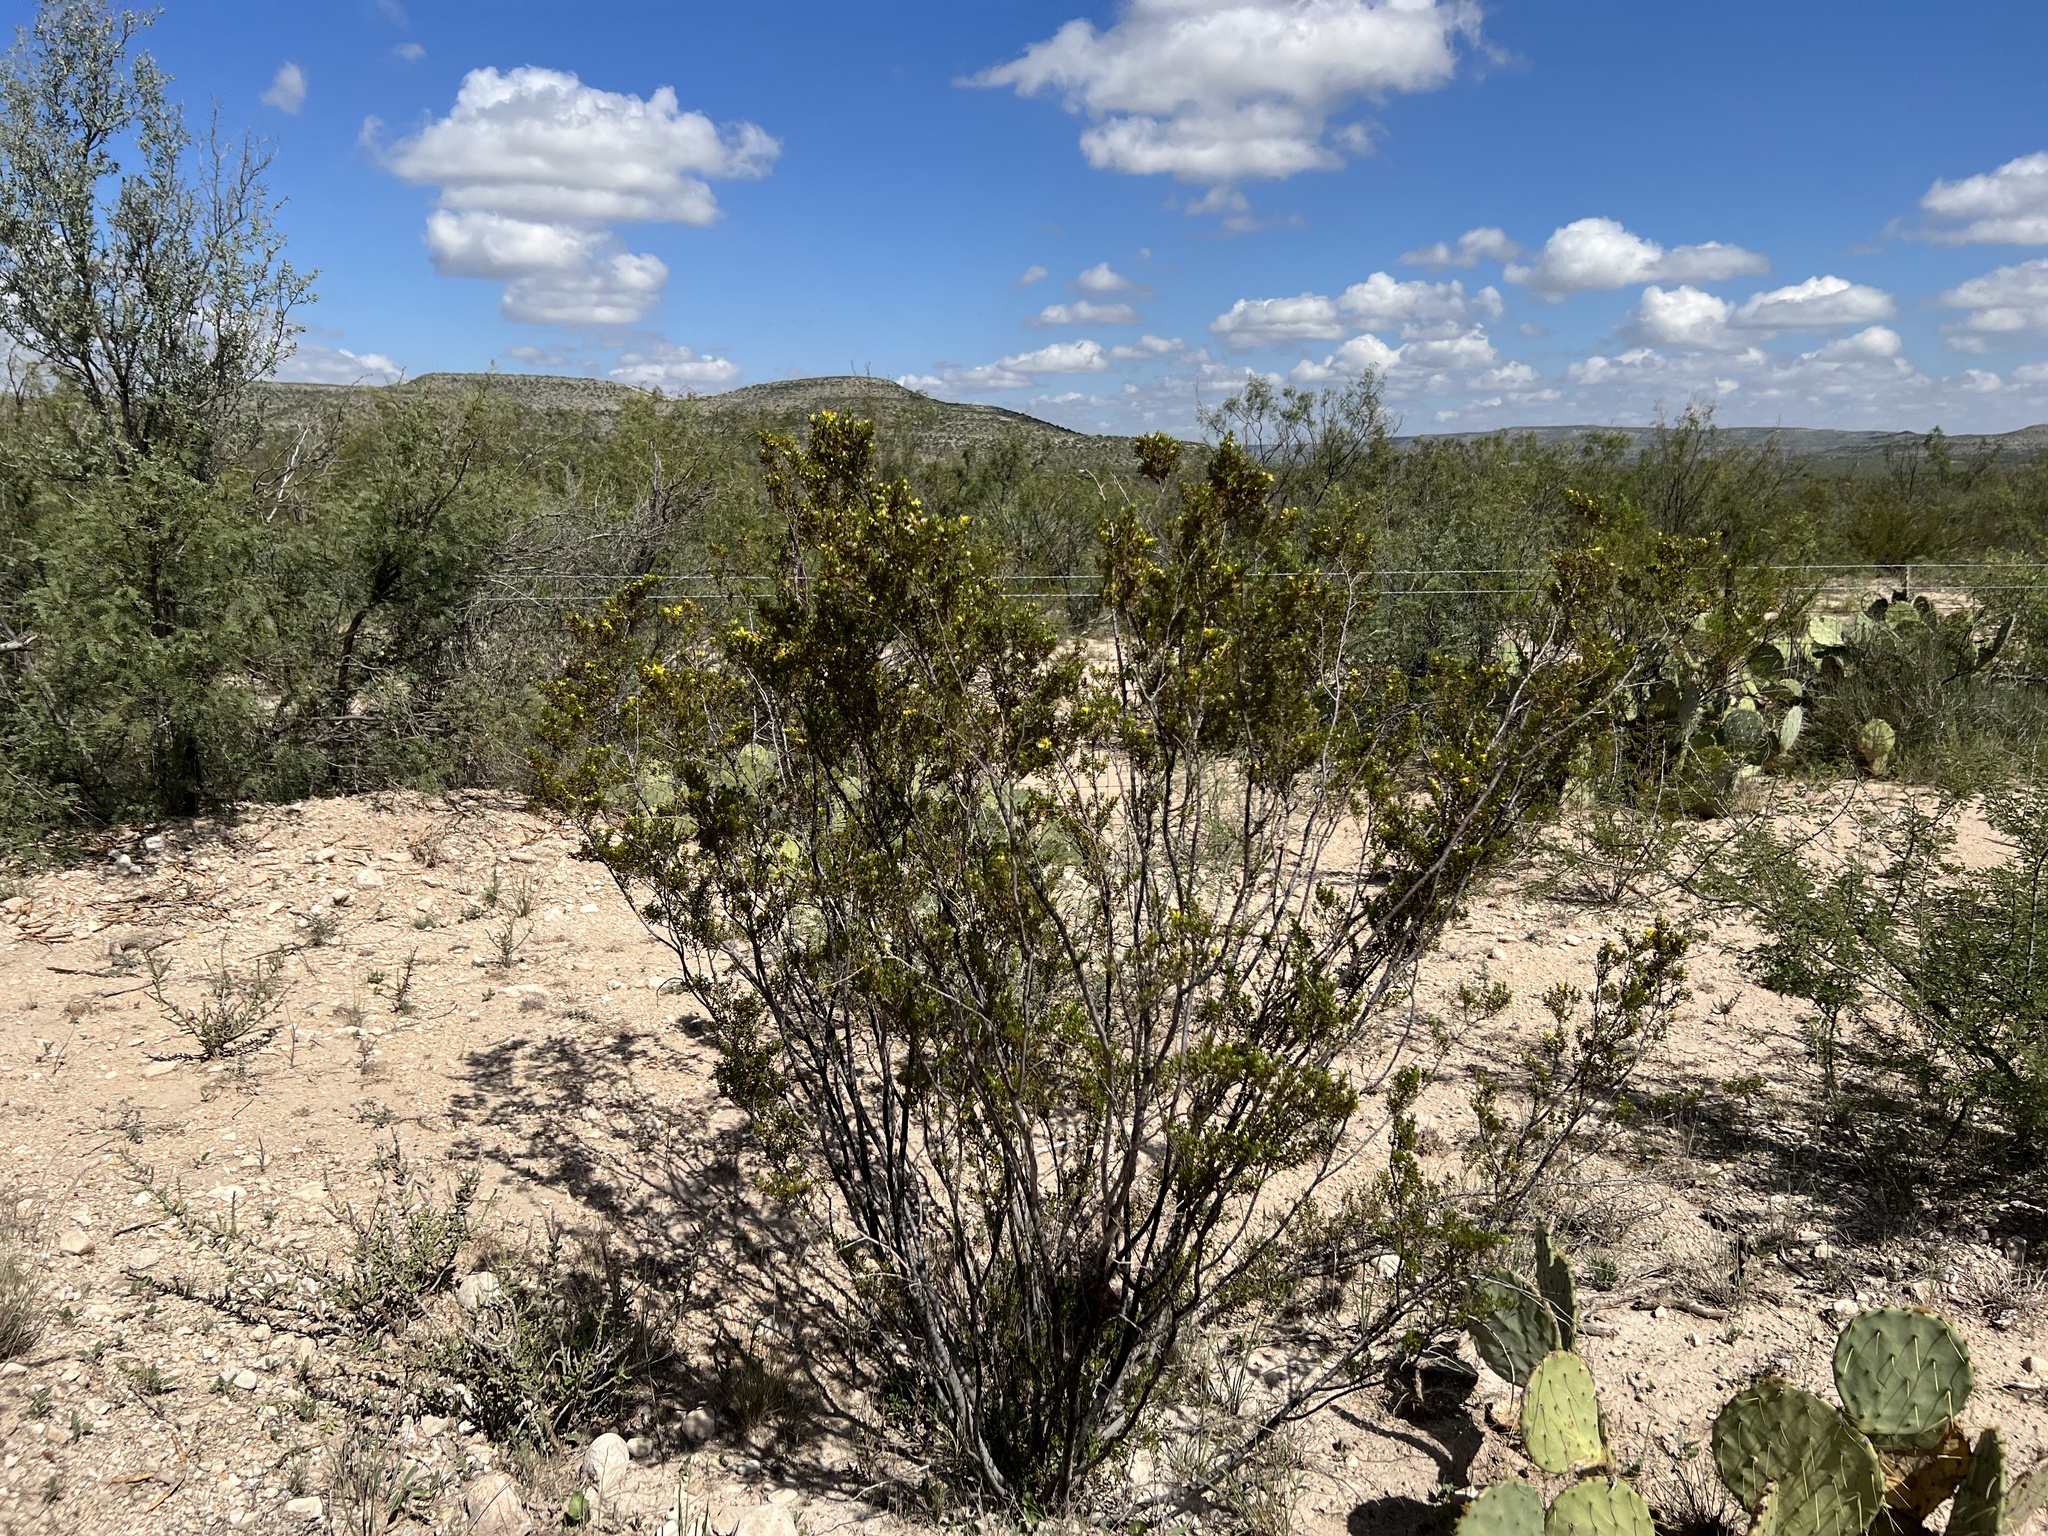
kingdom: Plantae
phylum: Tracheophyta
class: Magnoliopsida
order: Zygophyllales
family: Zygophyllaceae
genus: Larrea
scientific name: Larrea tridentata
